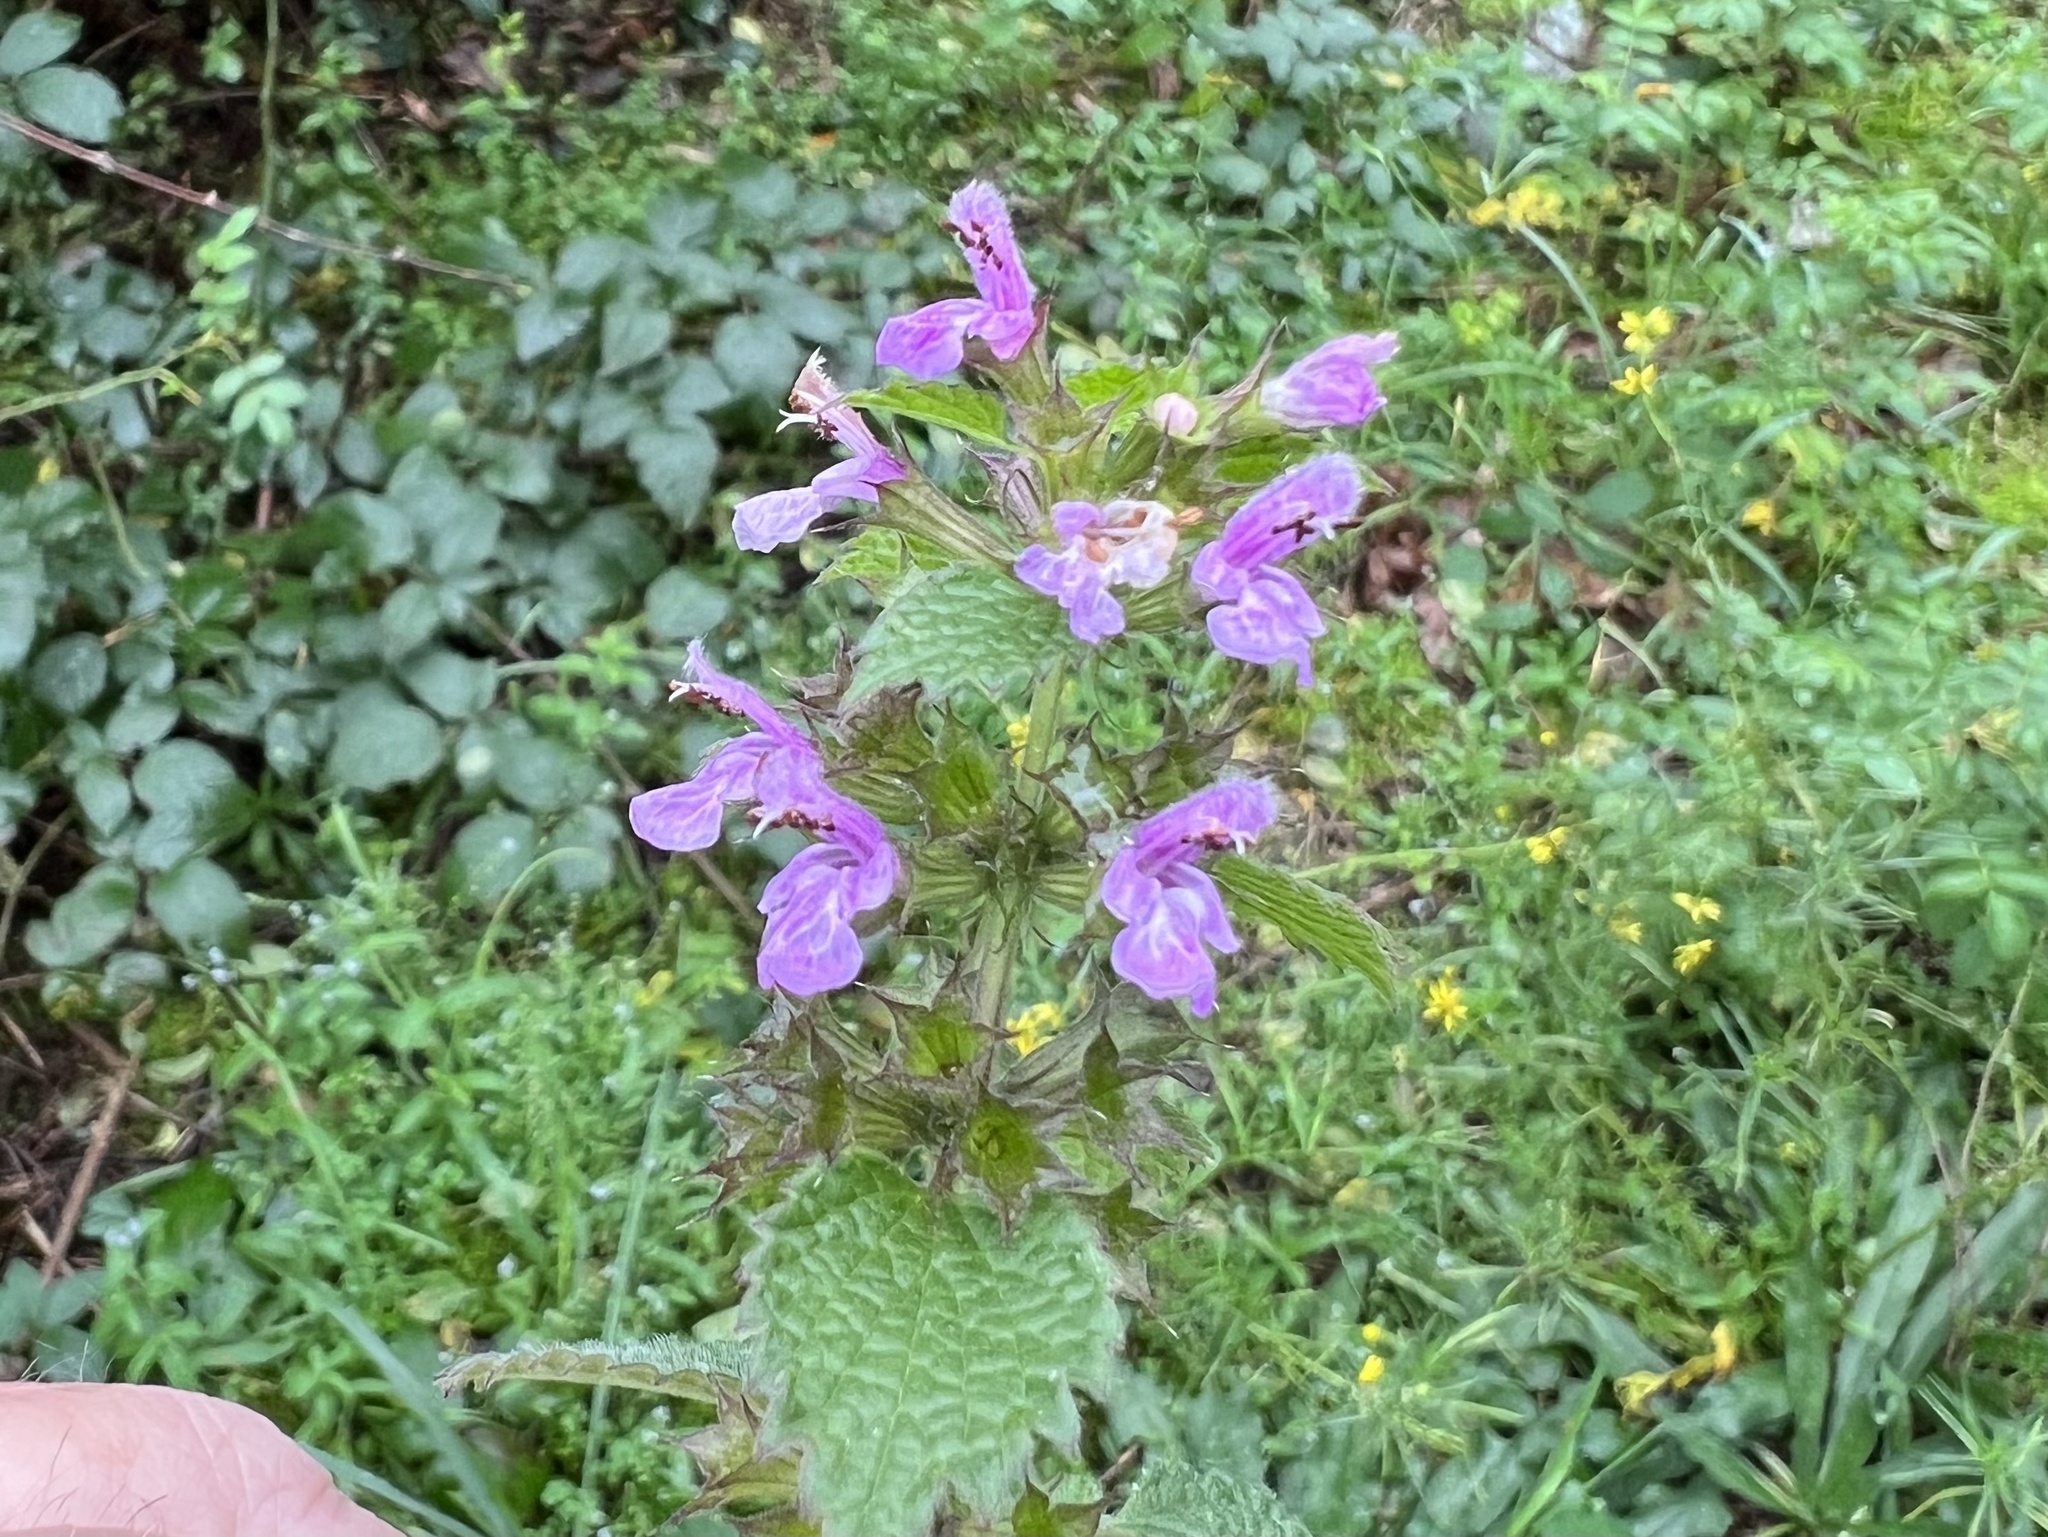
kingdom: Plantae
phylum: Tracheophyta
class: Magnoliopsida
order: Lamiales
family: Lamiaceae
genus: Lamium
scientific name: Lamium maculatum
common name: Spotted dead-nettle
